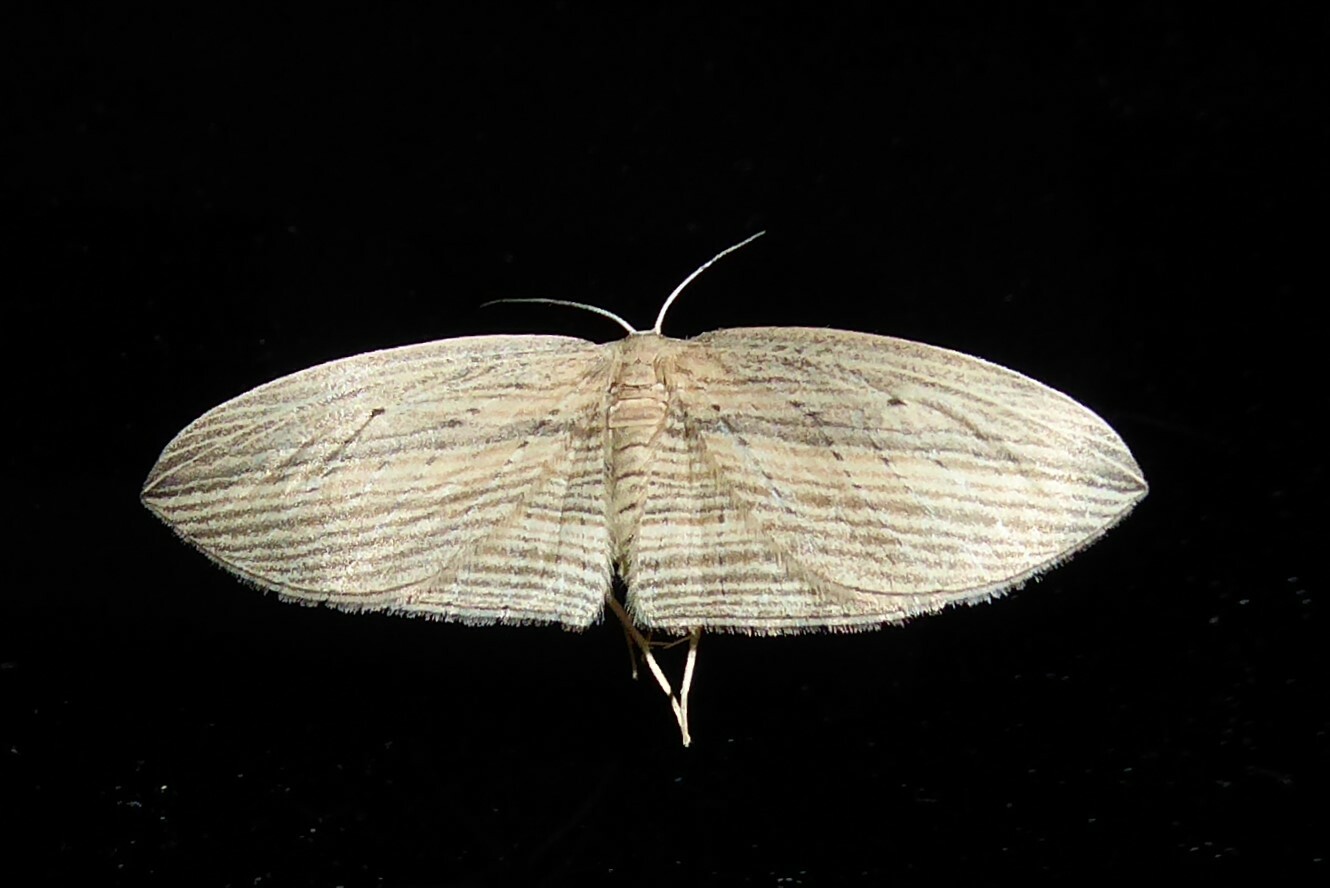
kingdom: Animalia
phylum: Arthropoda
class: Insecta
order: Lepidoptera
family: Geometridae
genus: Epiphryne
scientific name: Epiphryne verriculata
